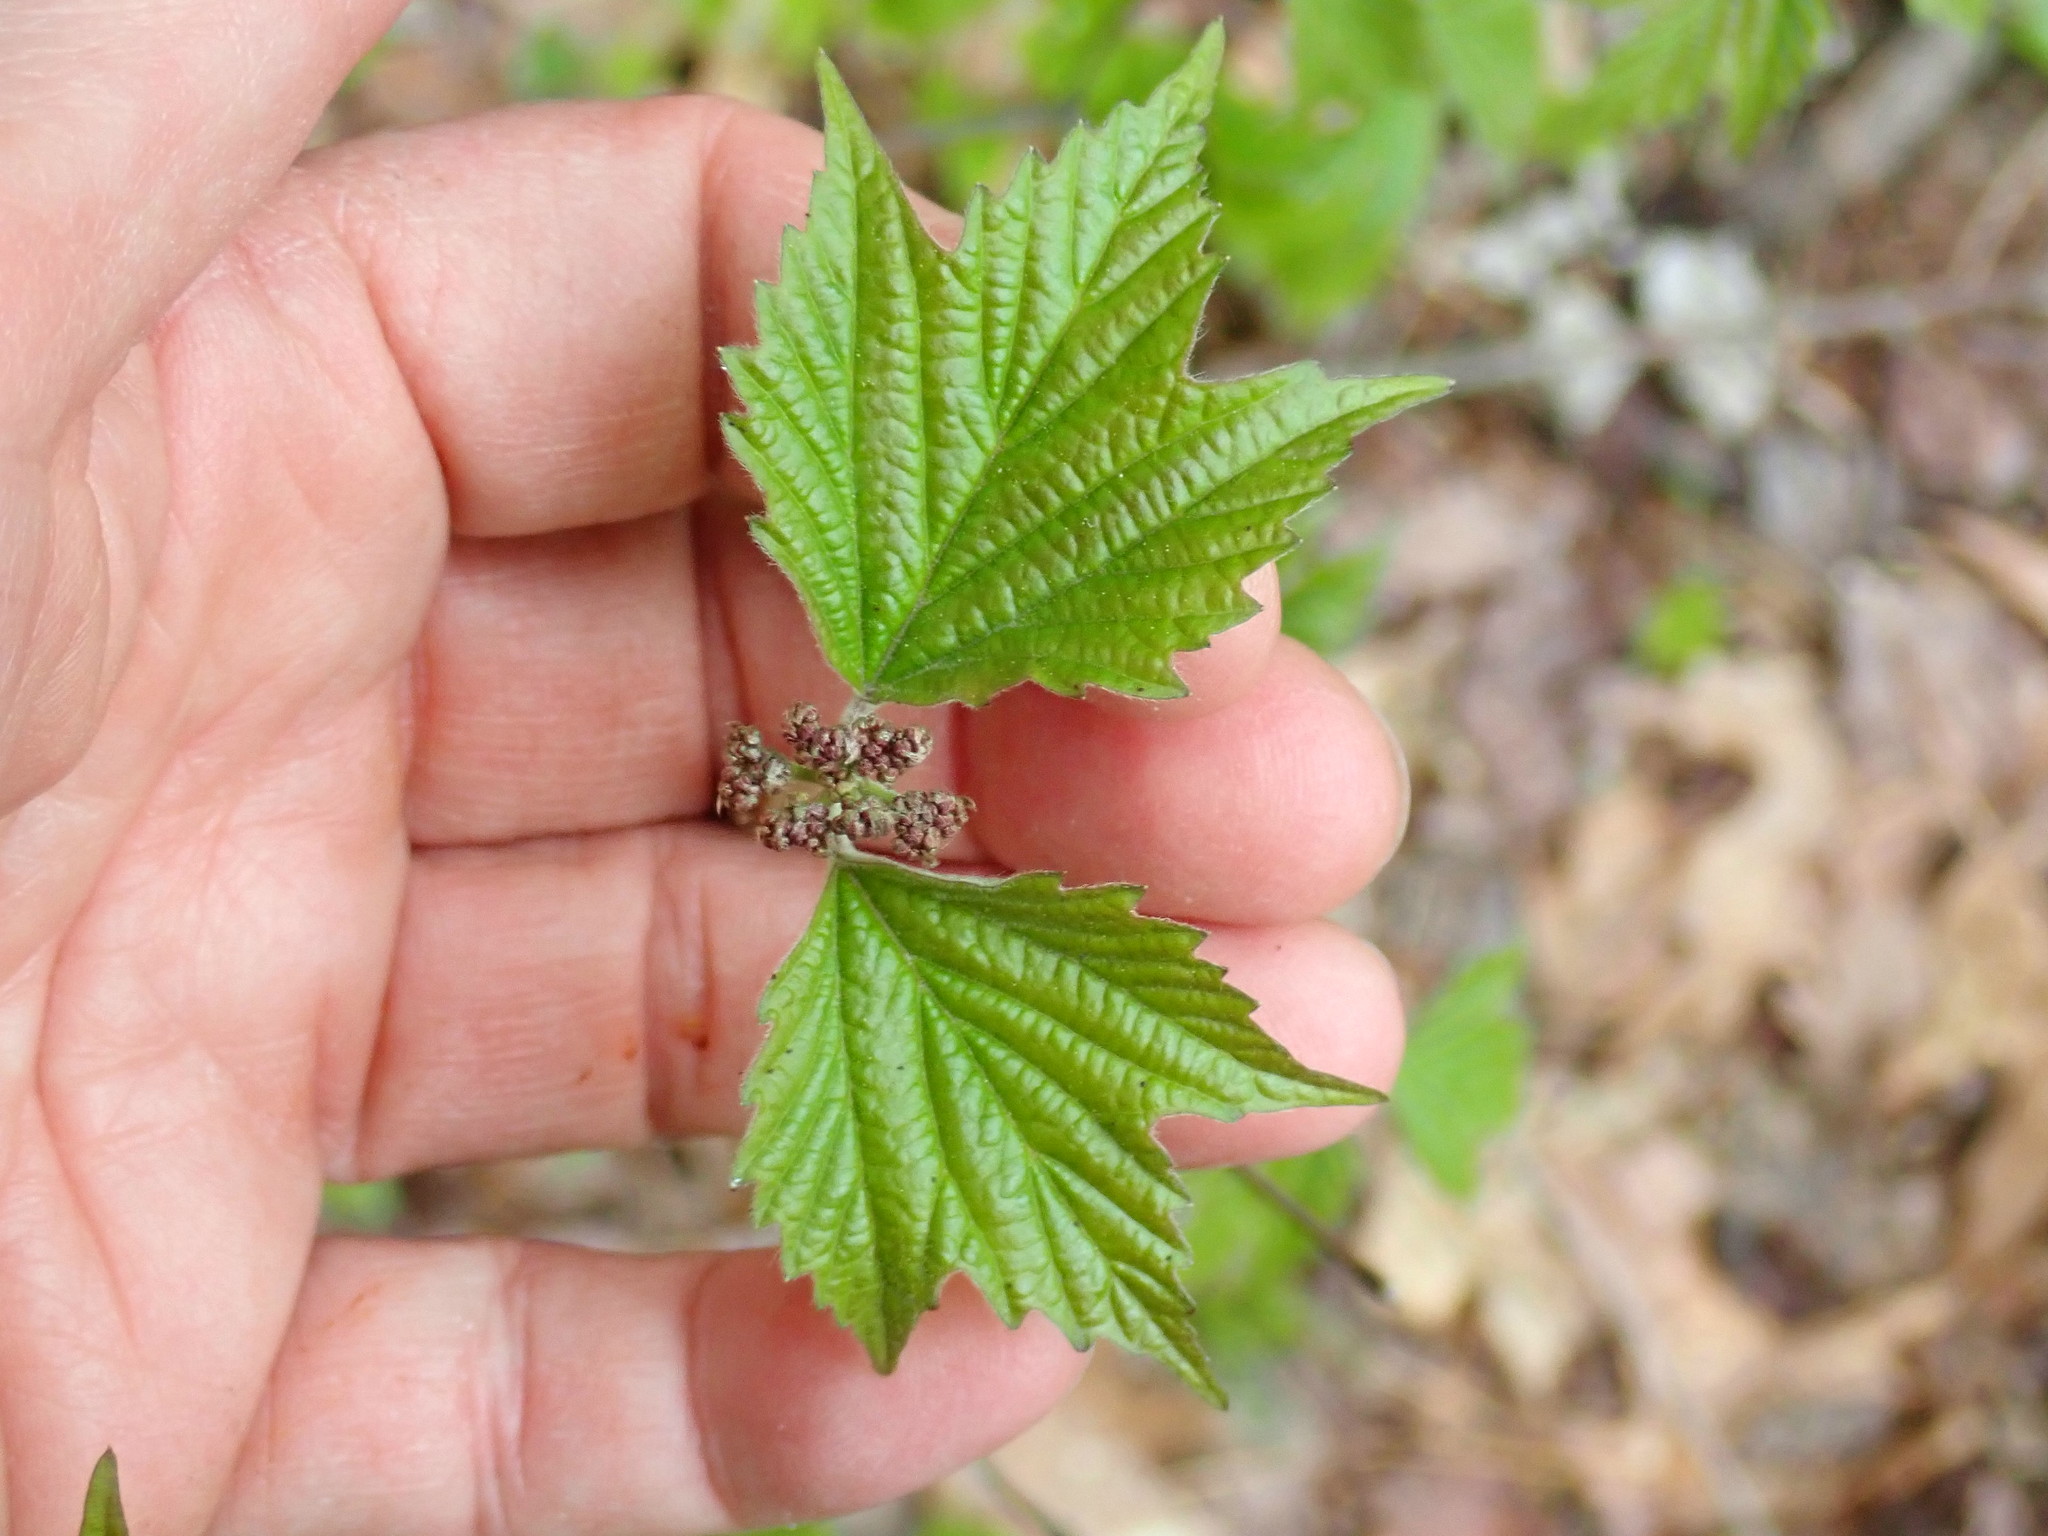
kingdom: Plantae
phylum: Tracheophyta
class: Magnoliopsida
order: Dipsacales
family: Viburnaceae
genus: Viburnum
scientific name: Viburnum acerifolium
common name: Dockmackie
